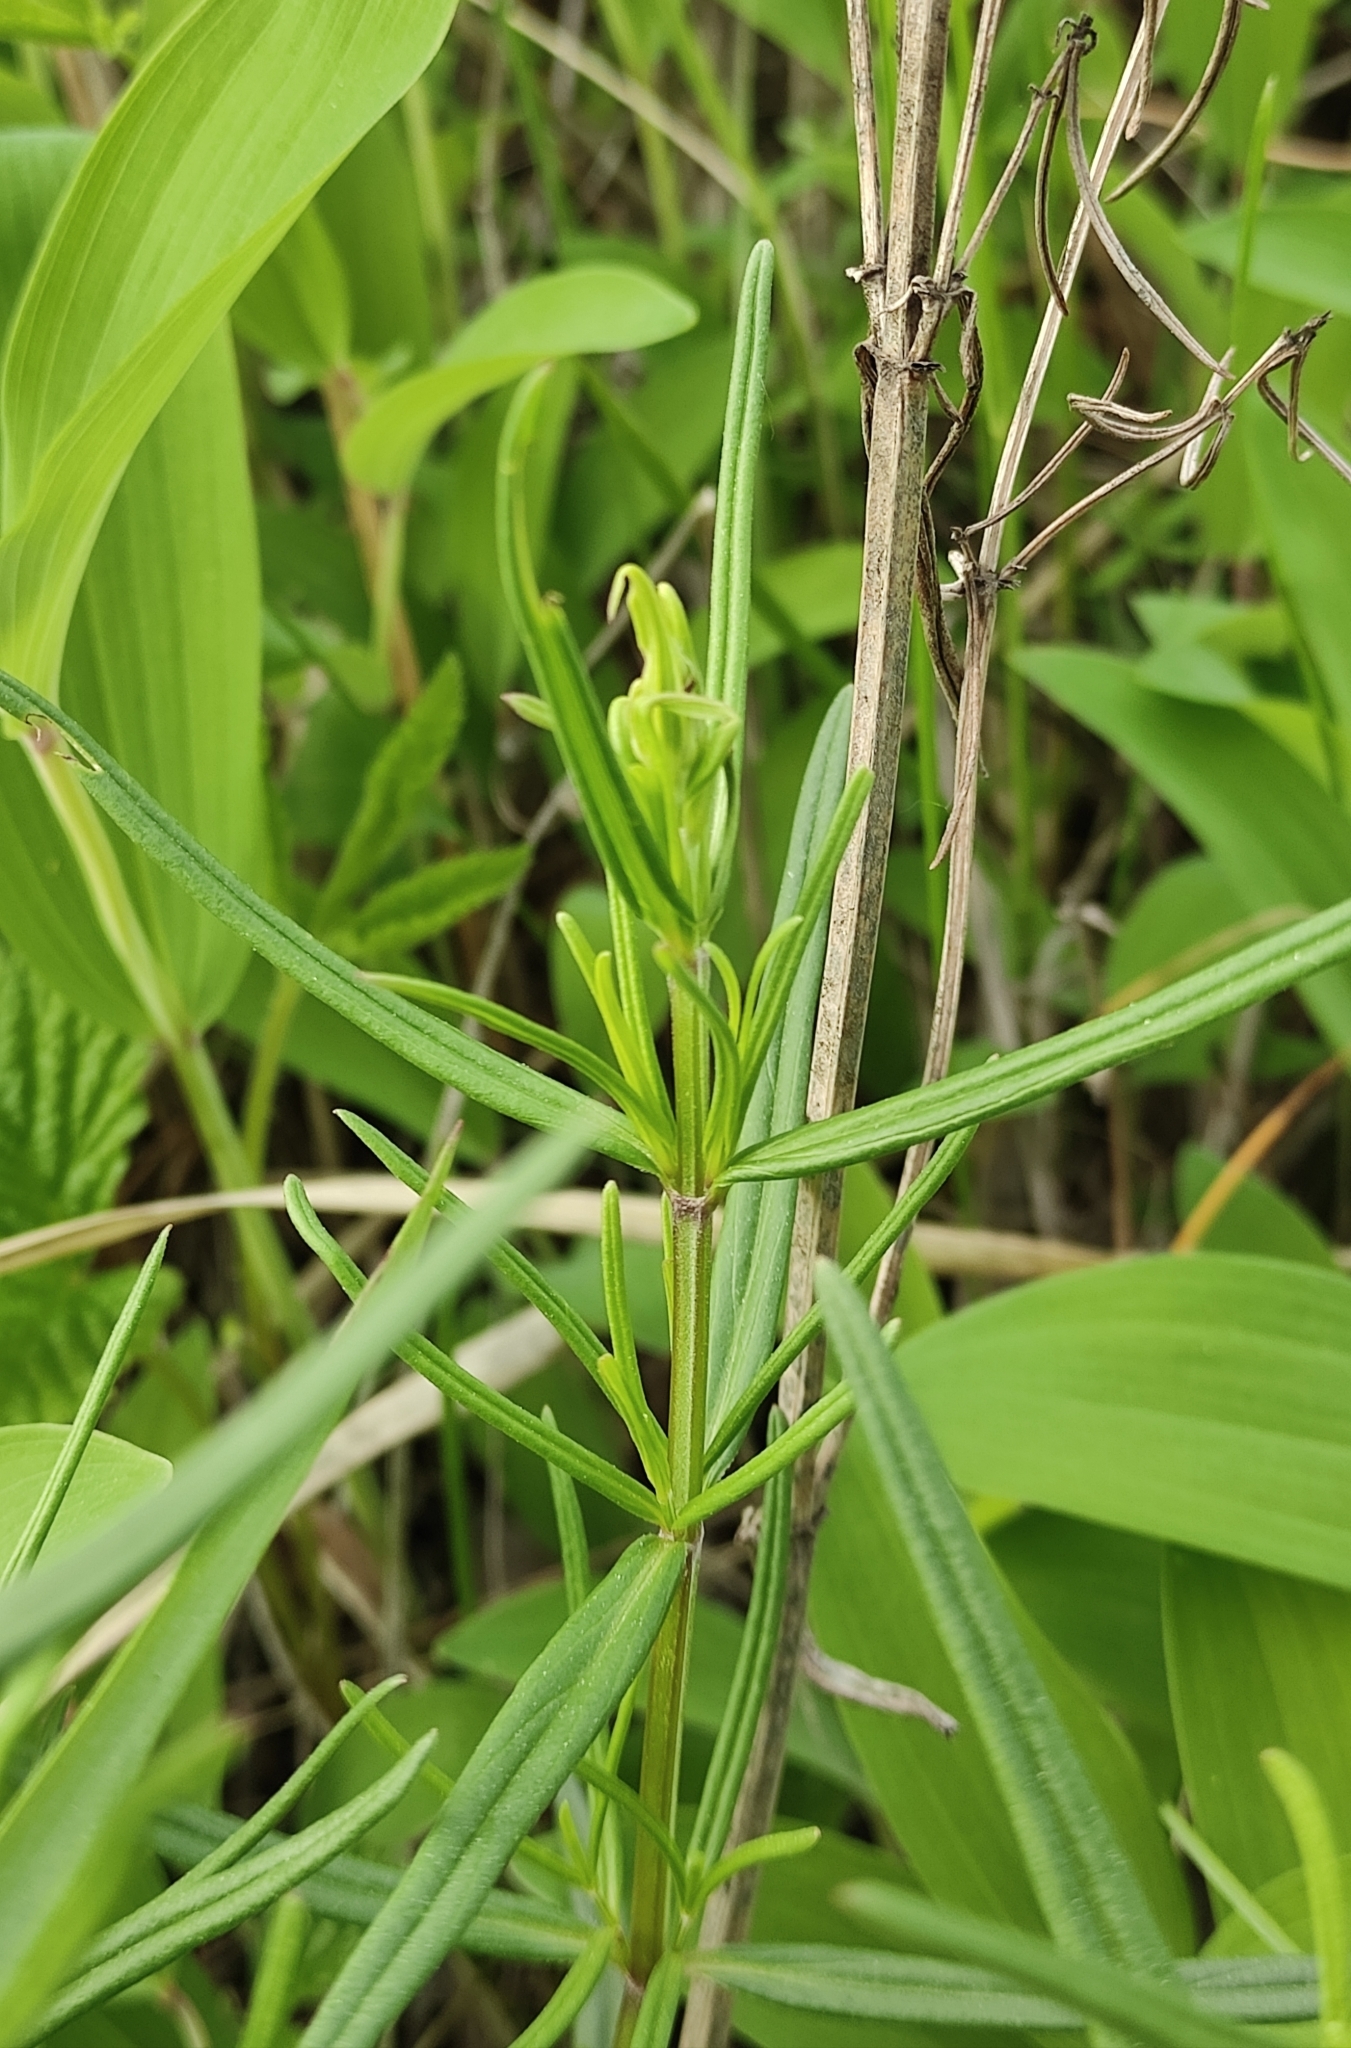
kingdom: Plantae
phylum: Tracheophyta
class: Magnoliopsida
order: Lamiales
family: Lamiaceae
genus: Dracocephalum
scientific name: Dracocephalum ruyschiana
